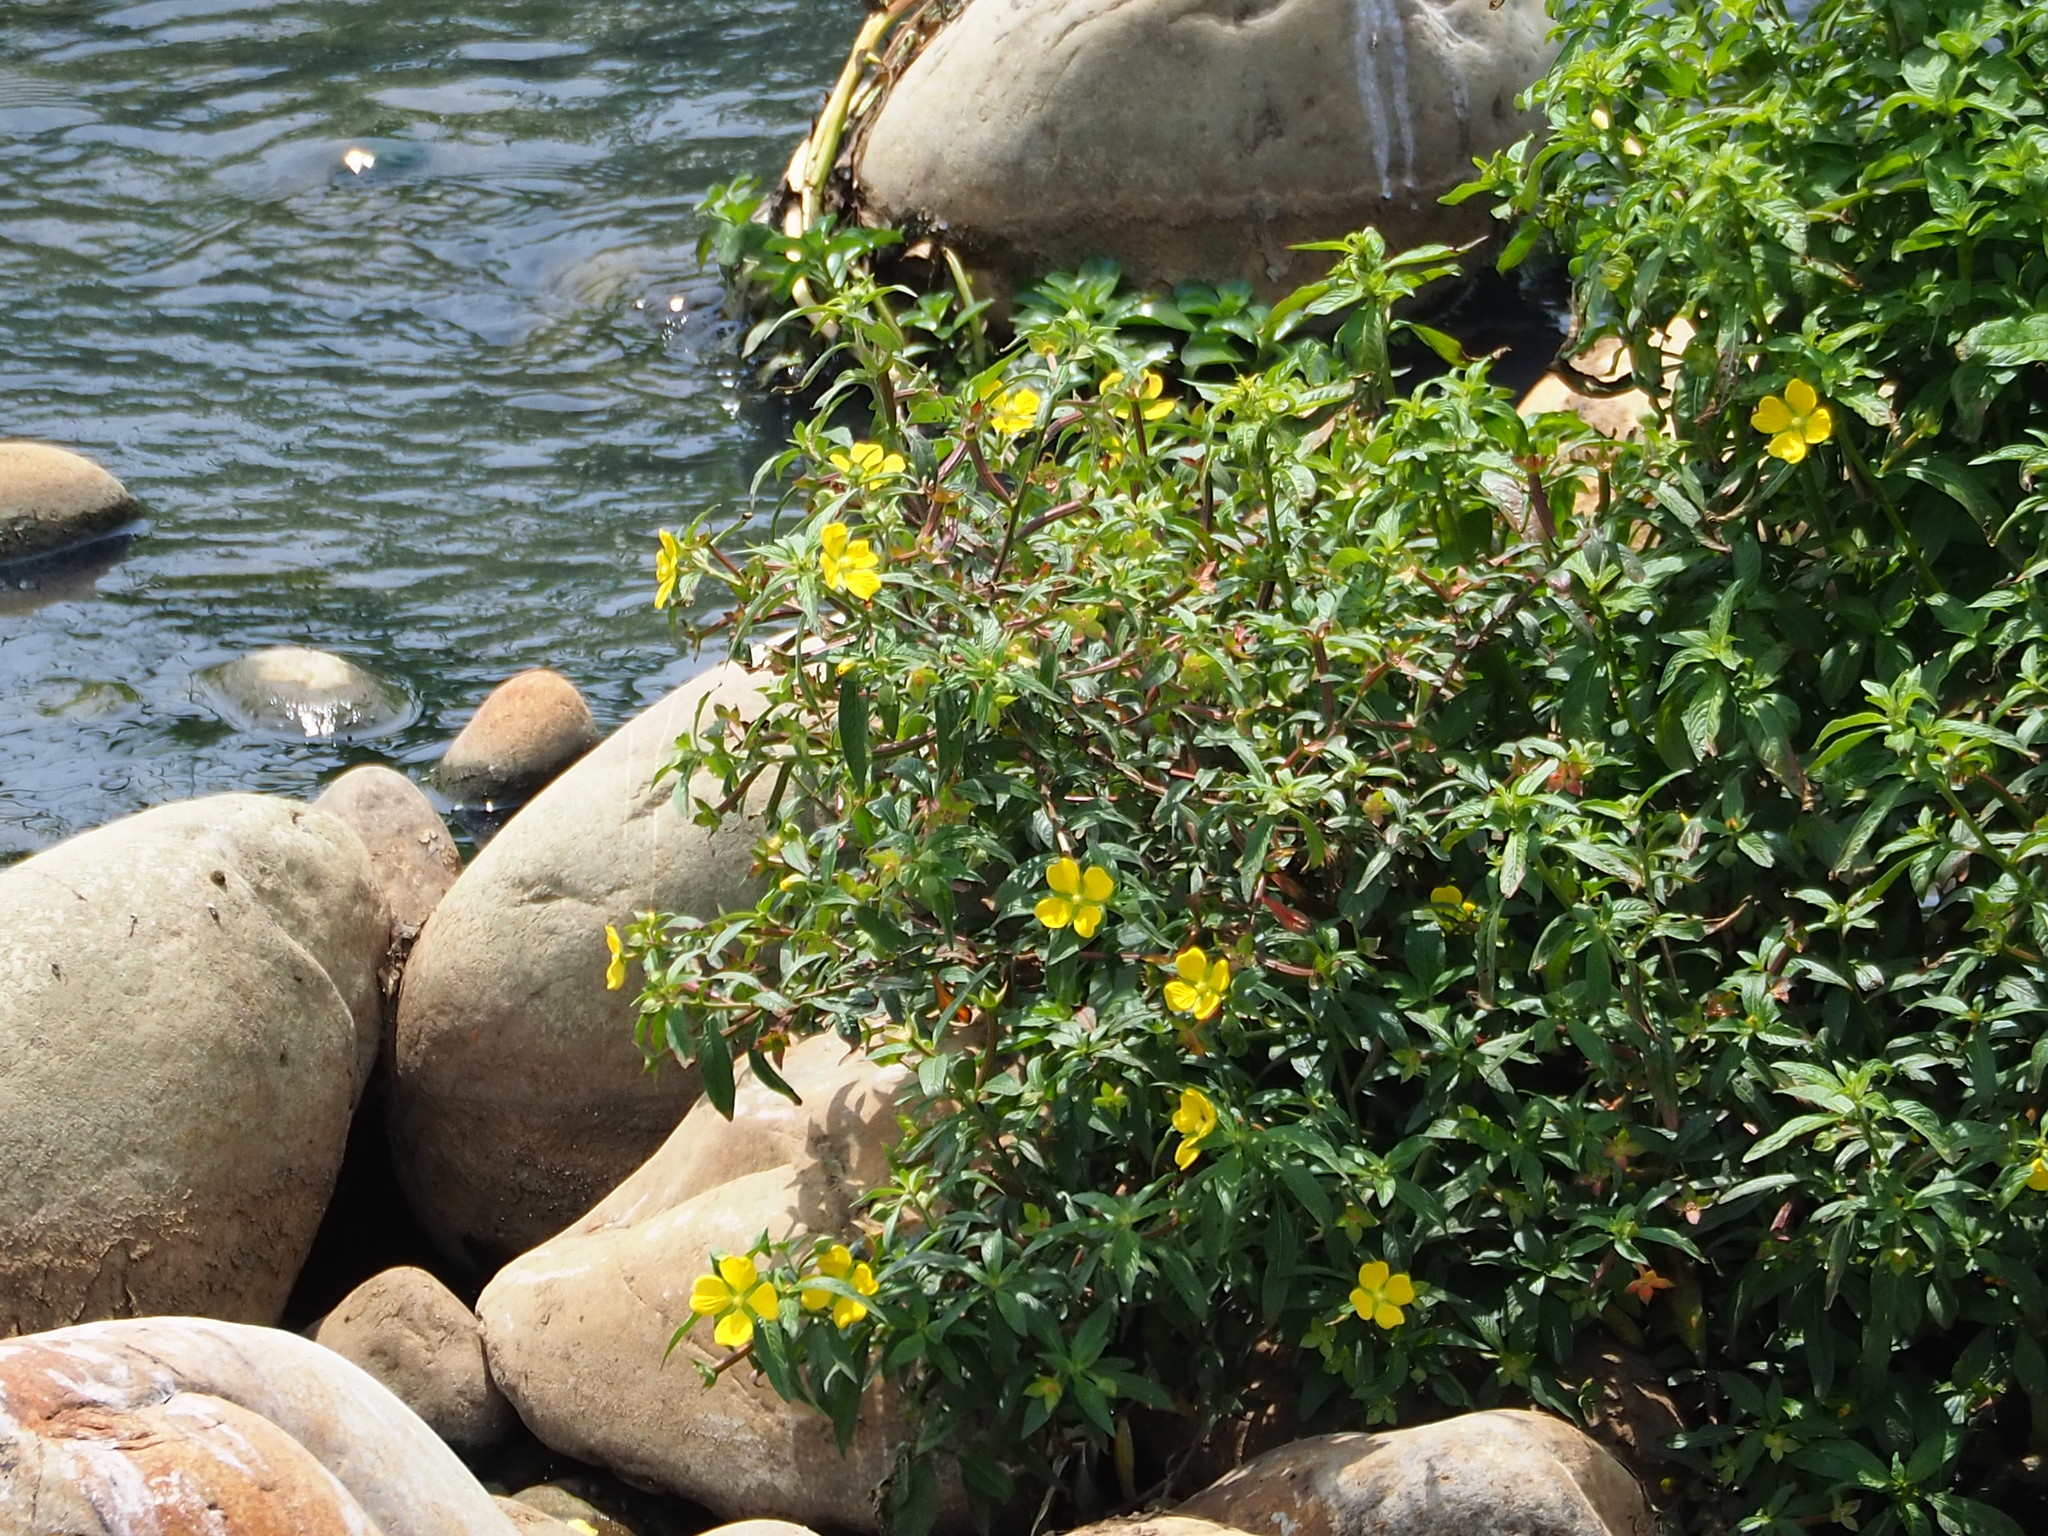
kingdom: Plantae
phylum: Tracheophyta
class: Magnoliopsida
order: Myrtales
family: Onagraceae
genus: Ludwigia
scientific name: Ludwigia octovalvis
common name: Water-primrose
